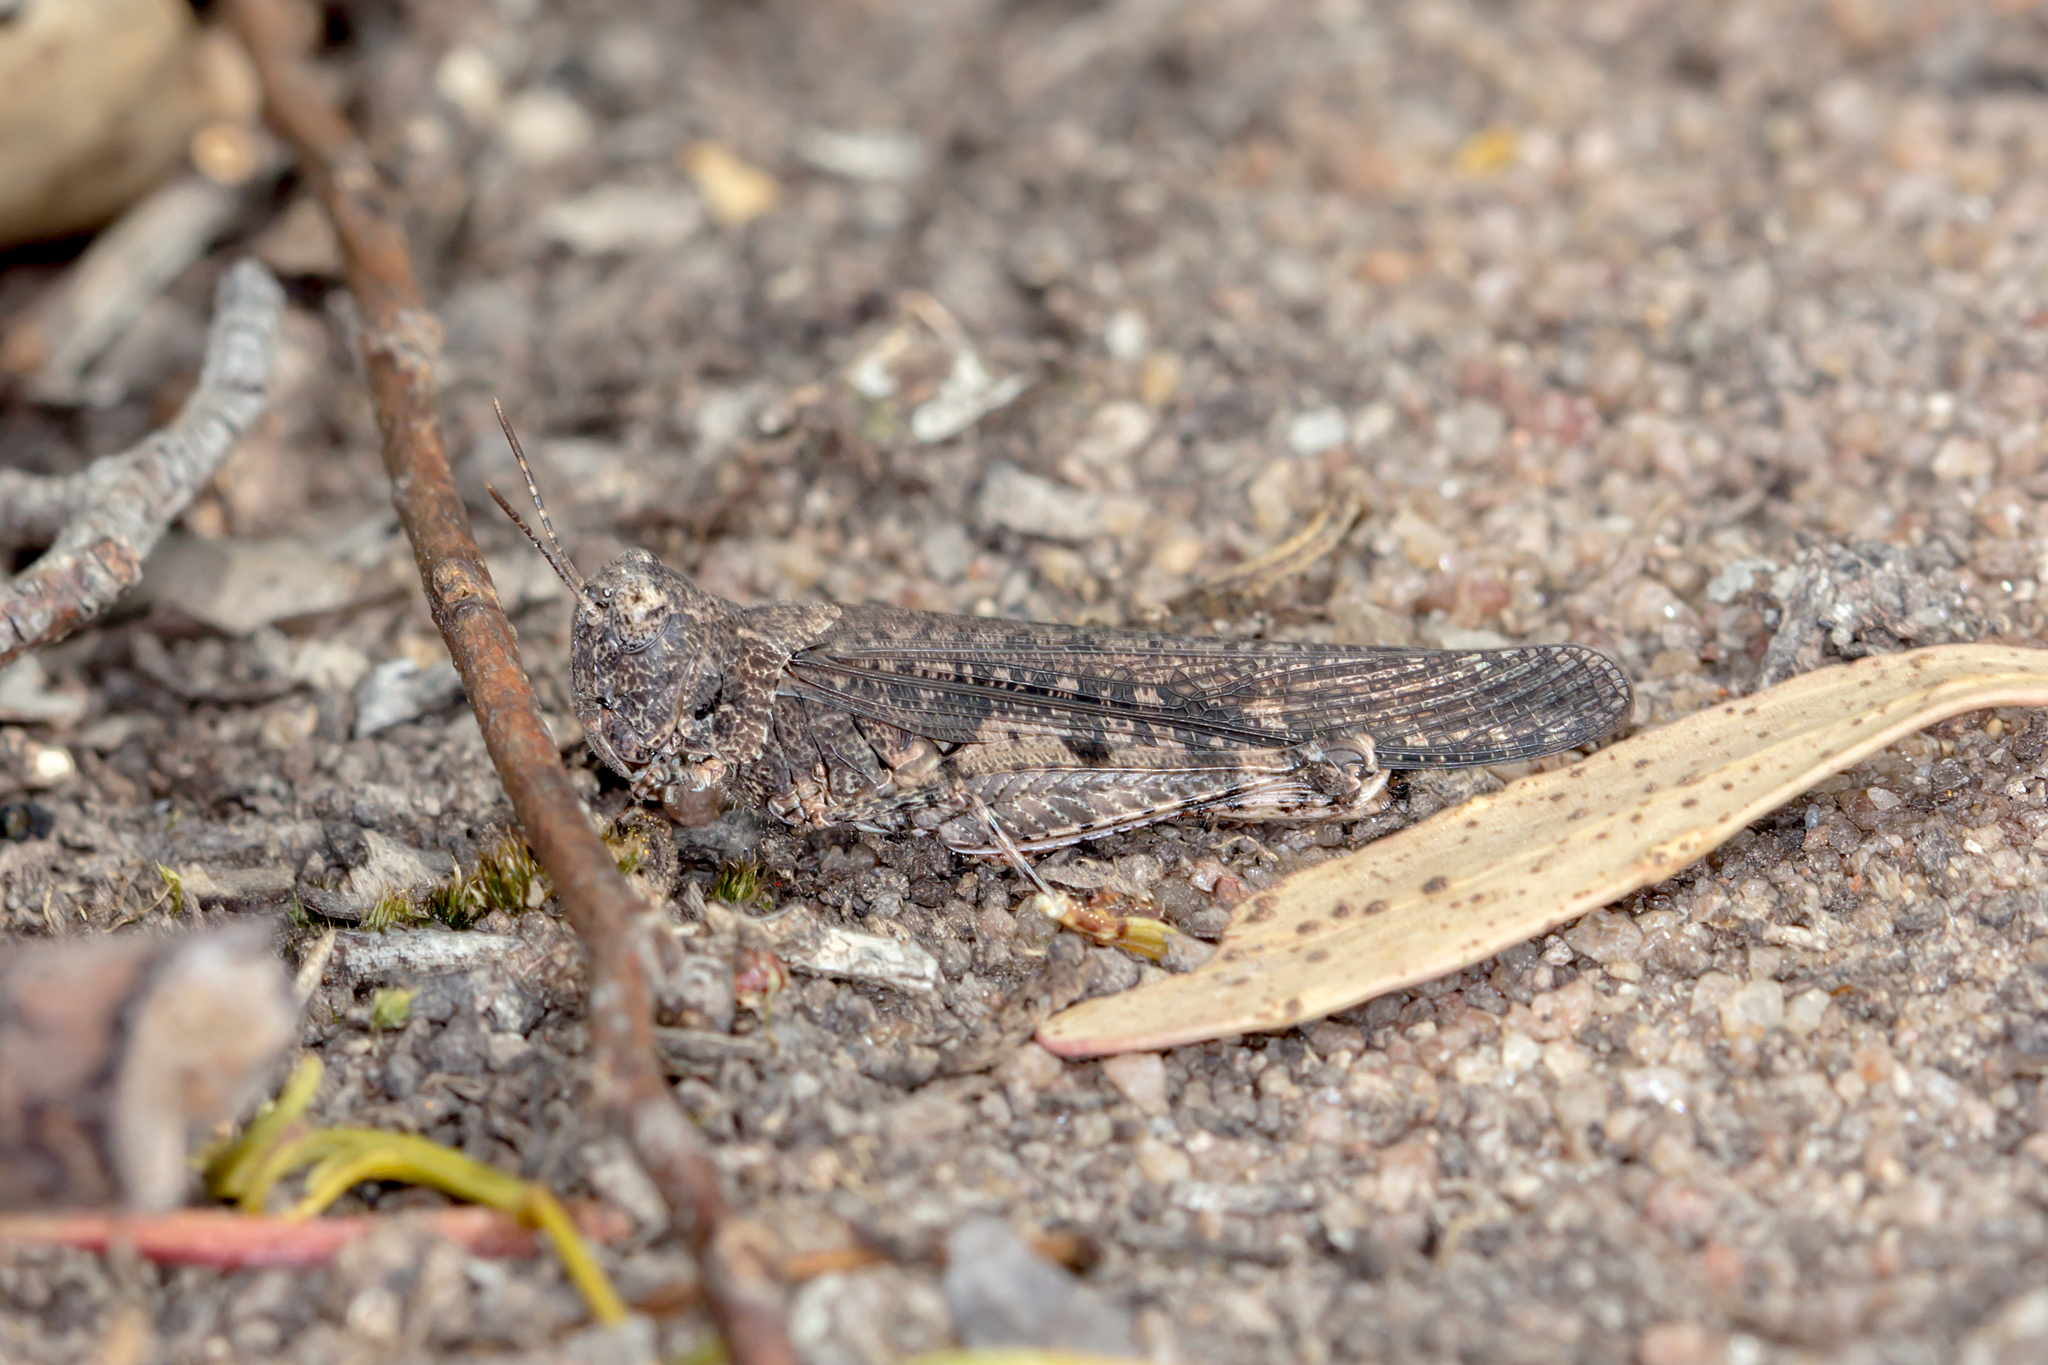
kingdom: Animalia
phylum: Arthropoda
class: Insecta
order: Orthoptera
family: Acrididae
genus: Austroicetes
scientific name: Austroicetes pusilla
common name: Confusing austroicetes
